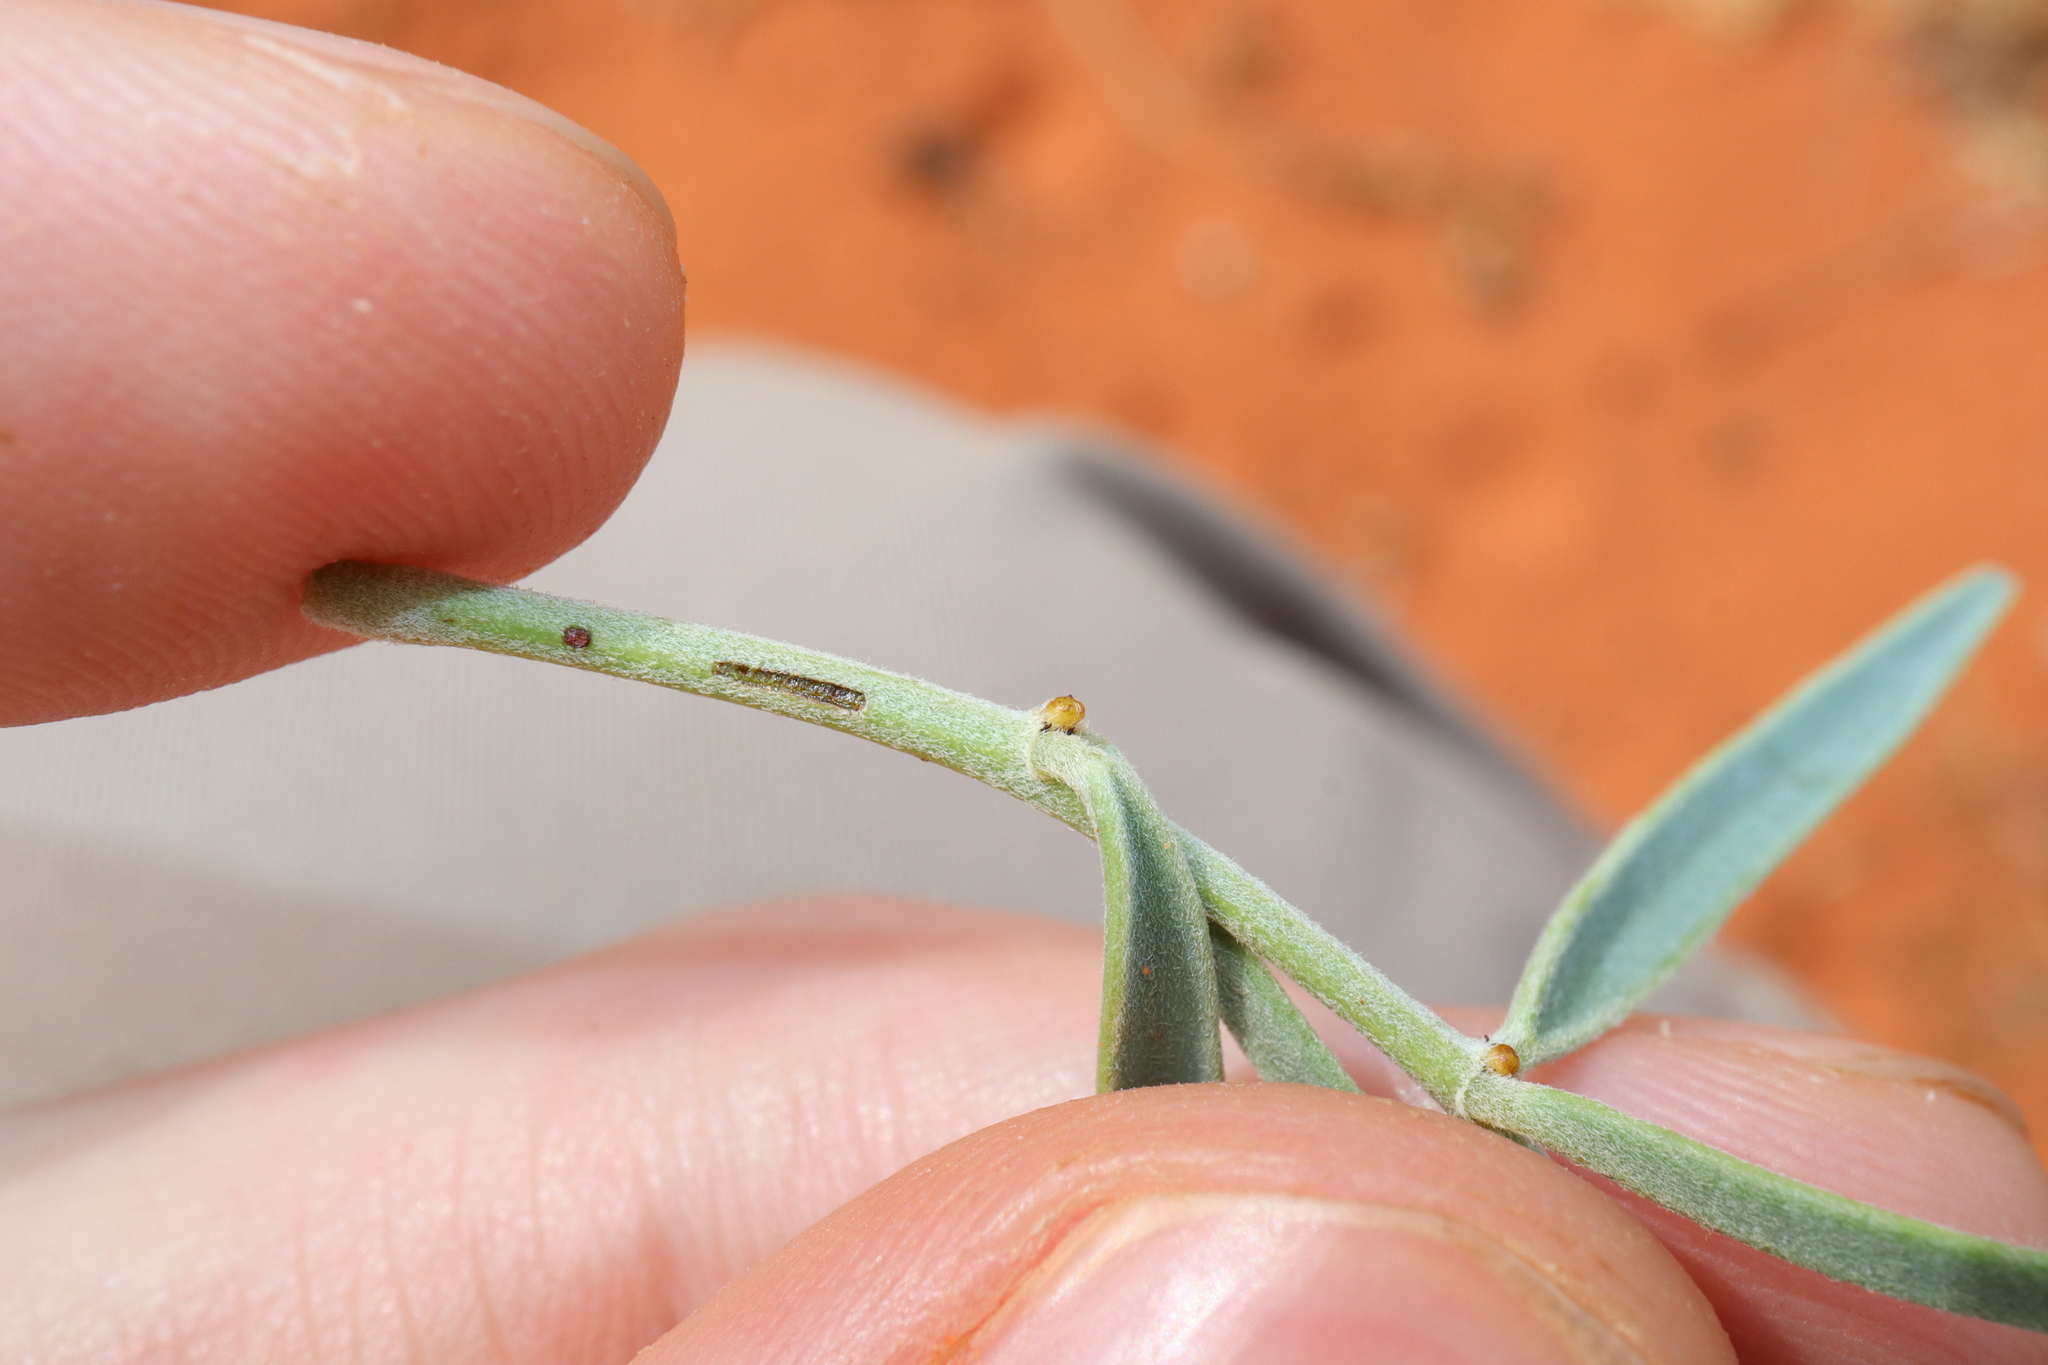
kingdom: Plantae
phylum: Tracheophyta
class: Magnoliopsida
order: Fabales
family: Fabaceae
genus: Senna
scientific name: Senna artemisioides
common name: Burnt-leaved acacia
